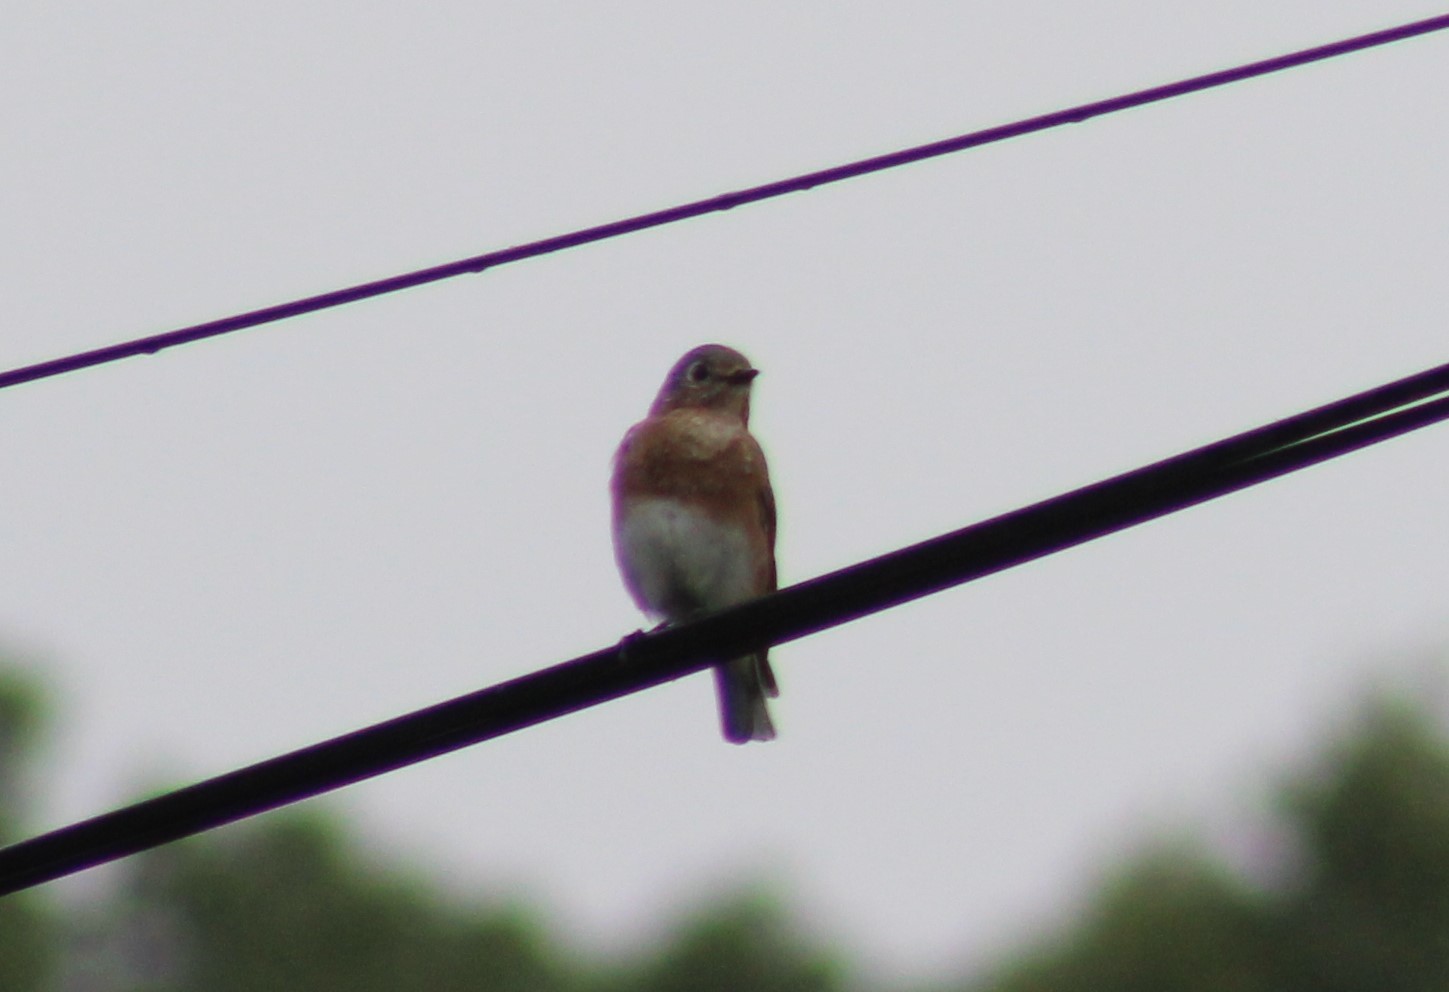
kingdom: Animalia
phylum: Chordata
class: Aves
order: Passeriformes
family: Turdidae
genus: Sialia
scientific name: Sialia sialis
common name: Eastern bluebird
